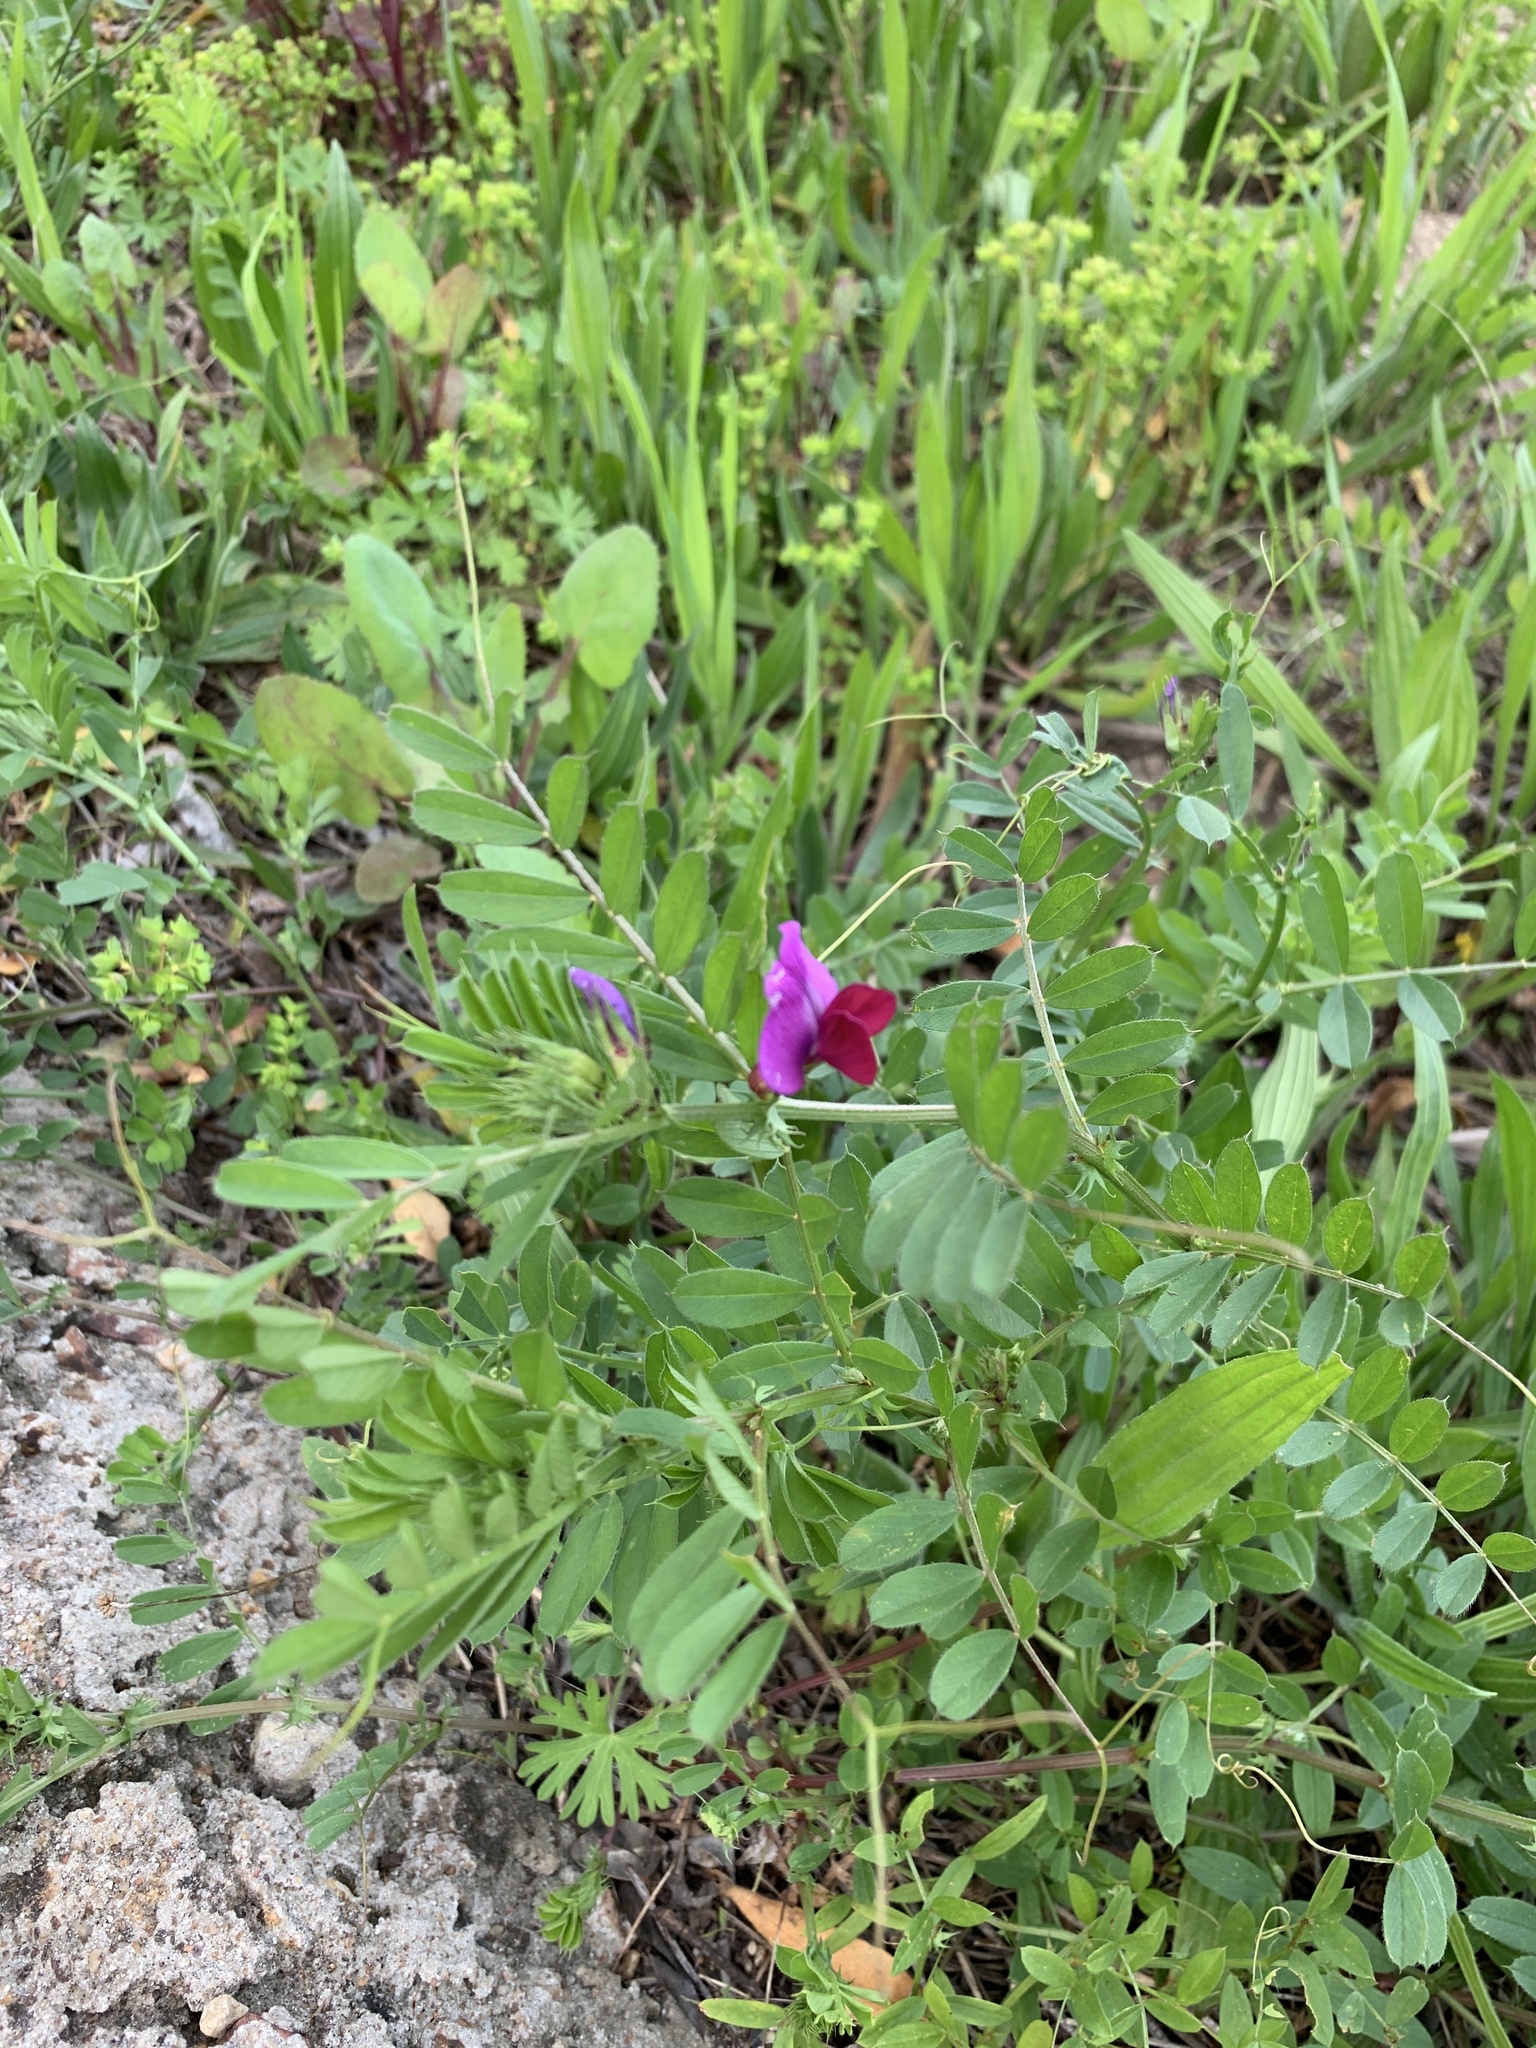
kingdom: Plantae
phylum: Tracheophyta
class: Magnoliopsida
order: Fabales
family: Fabaceae
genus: Vicia
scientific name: Vicia sativa
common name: Garden vetch
